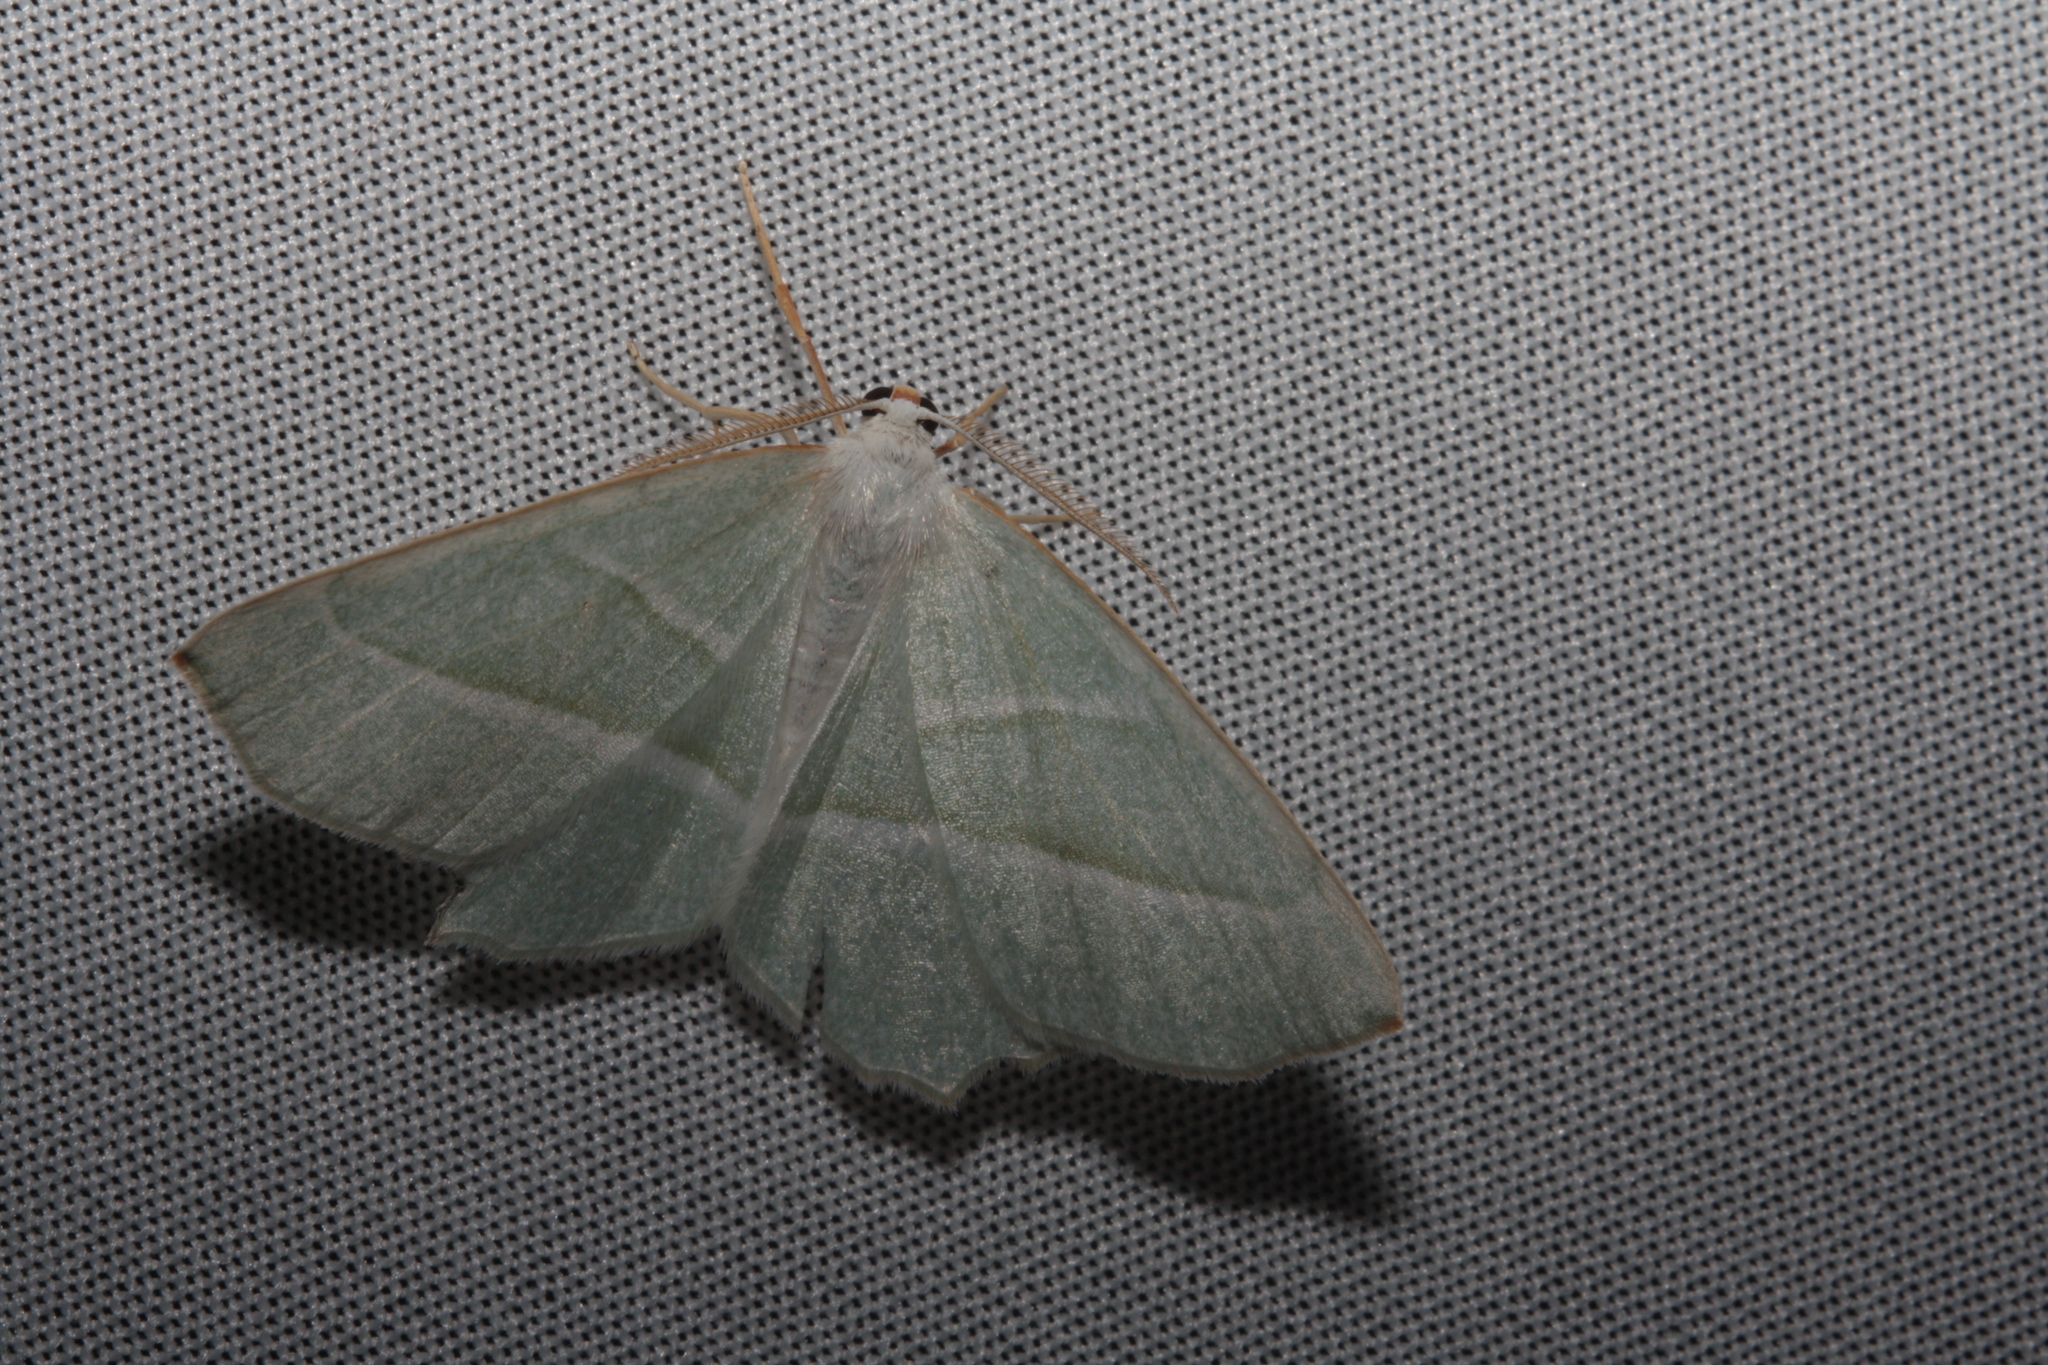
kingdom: Animalia
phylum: Arthropoda
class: Insecta
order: Lepidoptera
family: Geometridae
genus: Campaea
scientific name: Campaea margaritaria
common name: Light emerald
